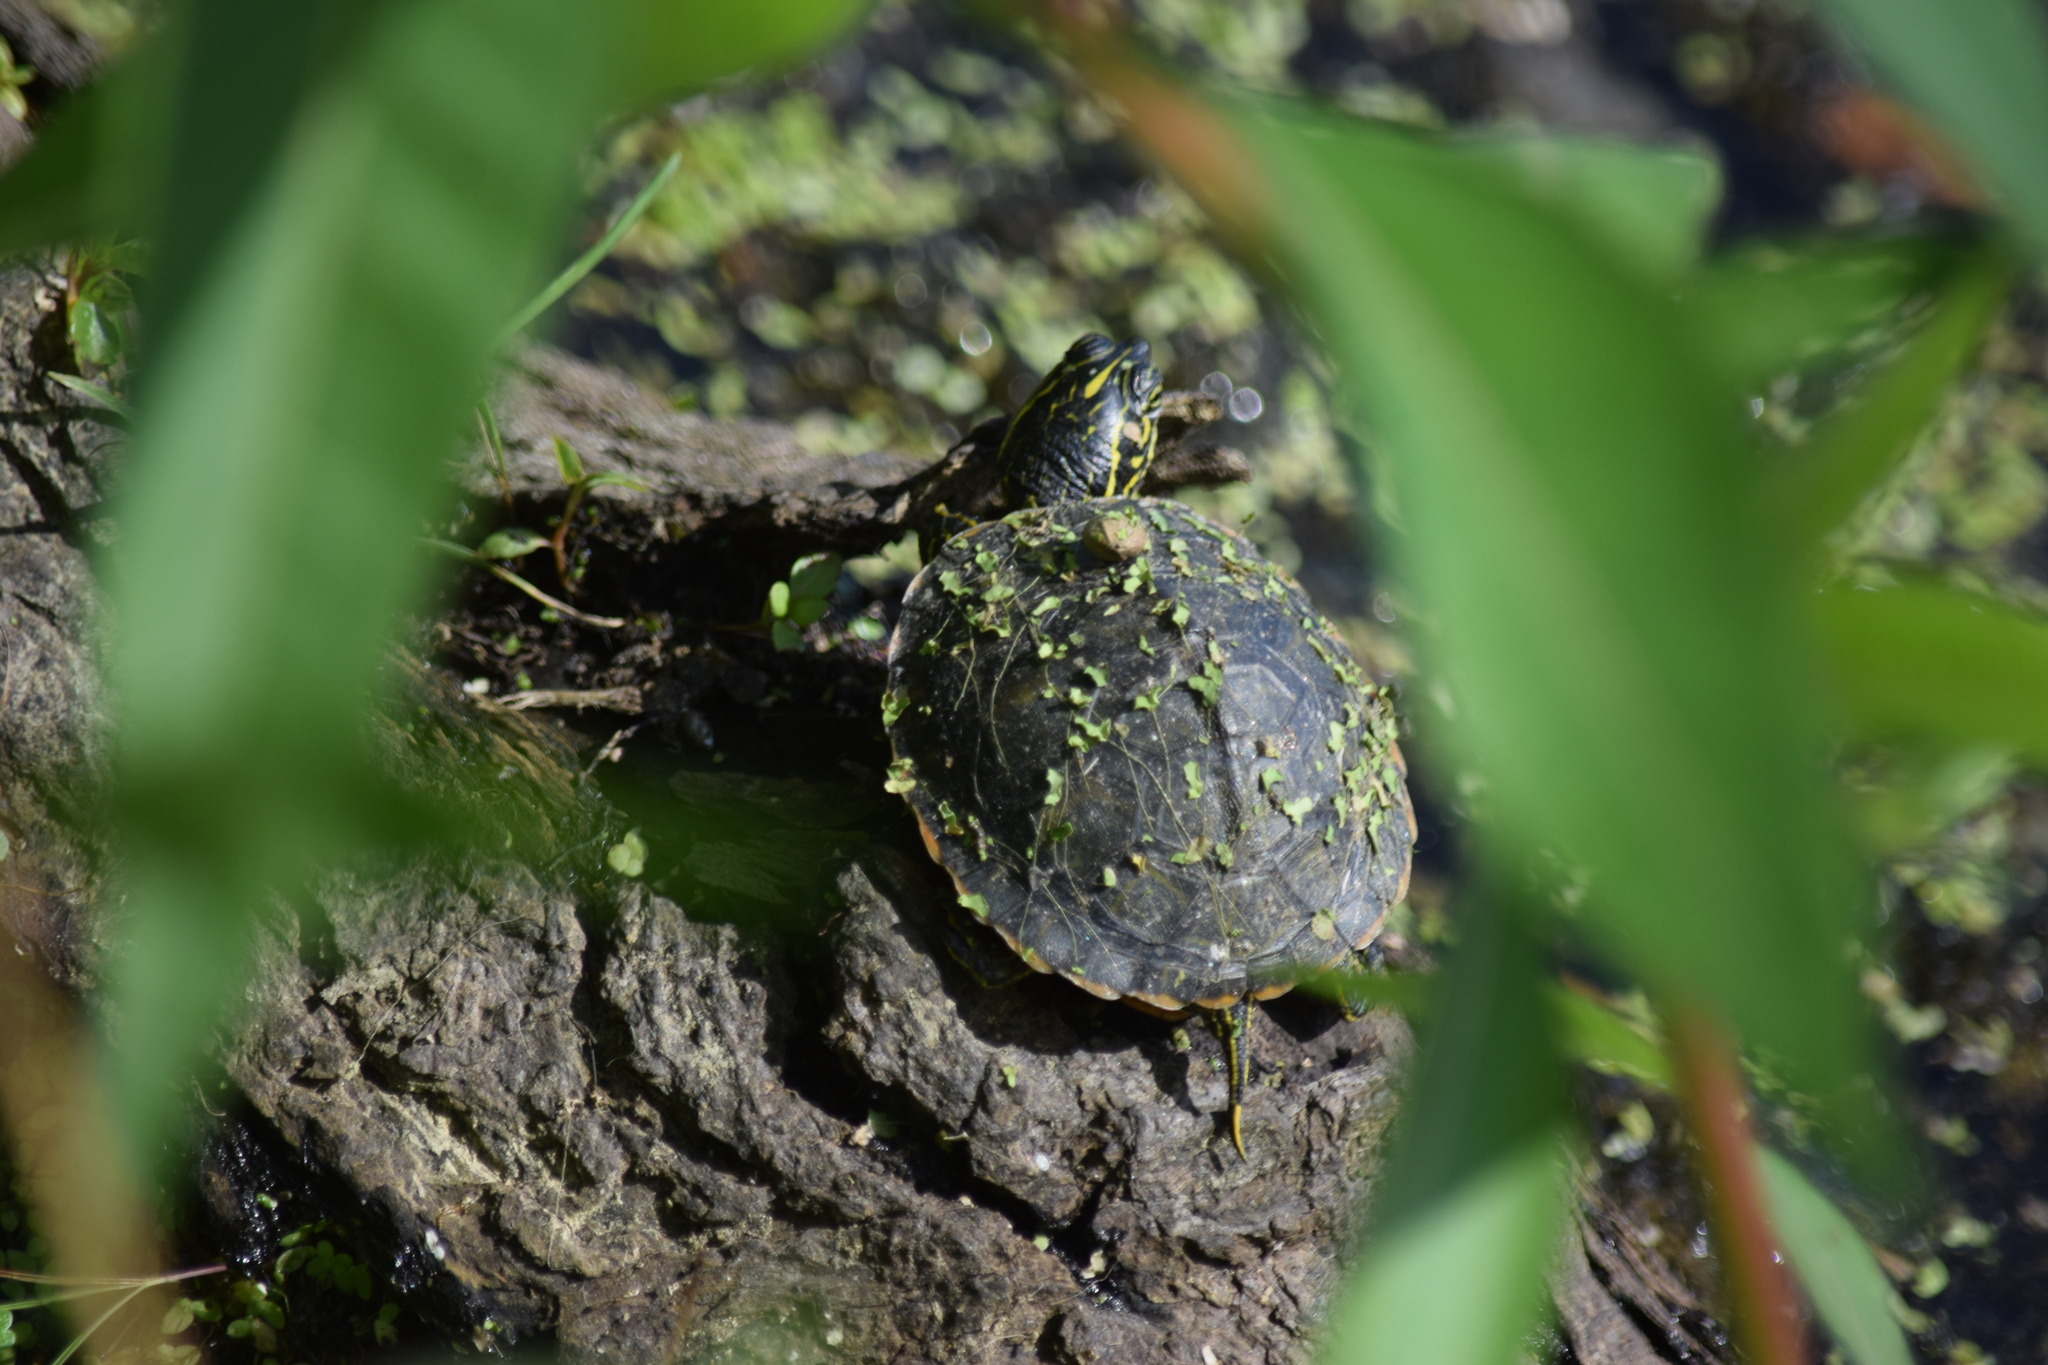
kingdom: Animalia
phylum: Chordata
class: Testudines
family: Emydidae
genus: Pseudemys
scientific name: Pseudemys rubriventris
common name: American red-bellied turtle
